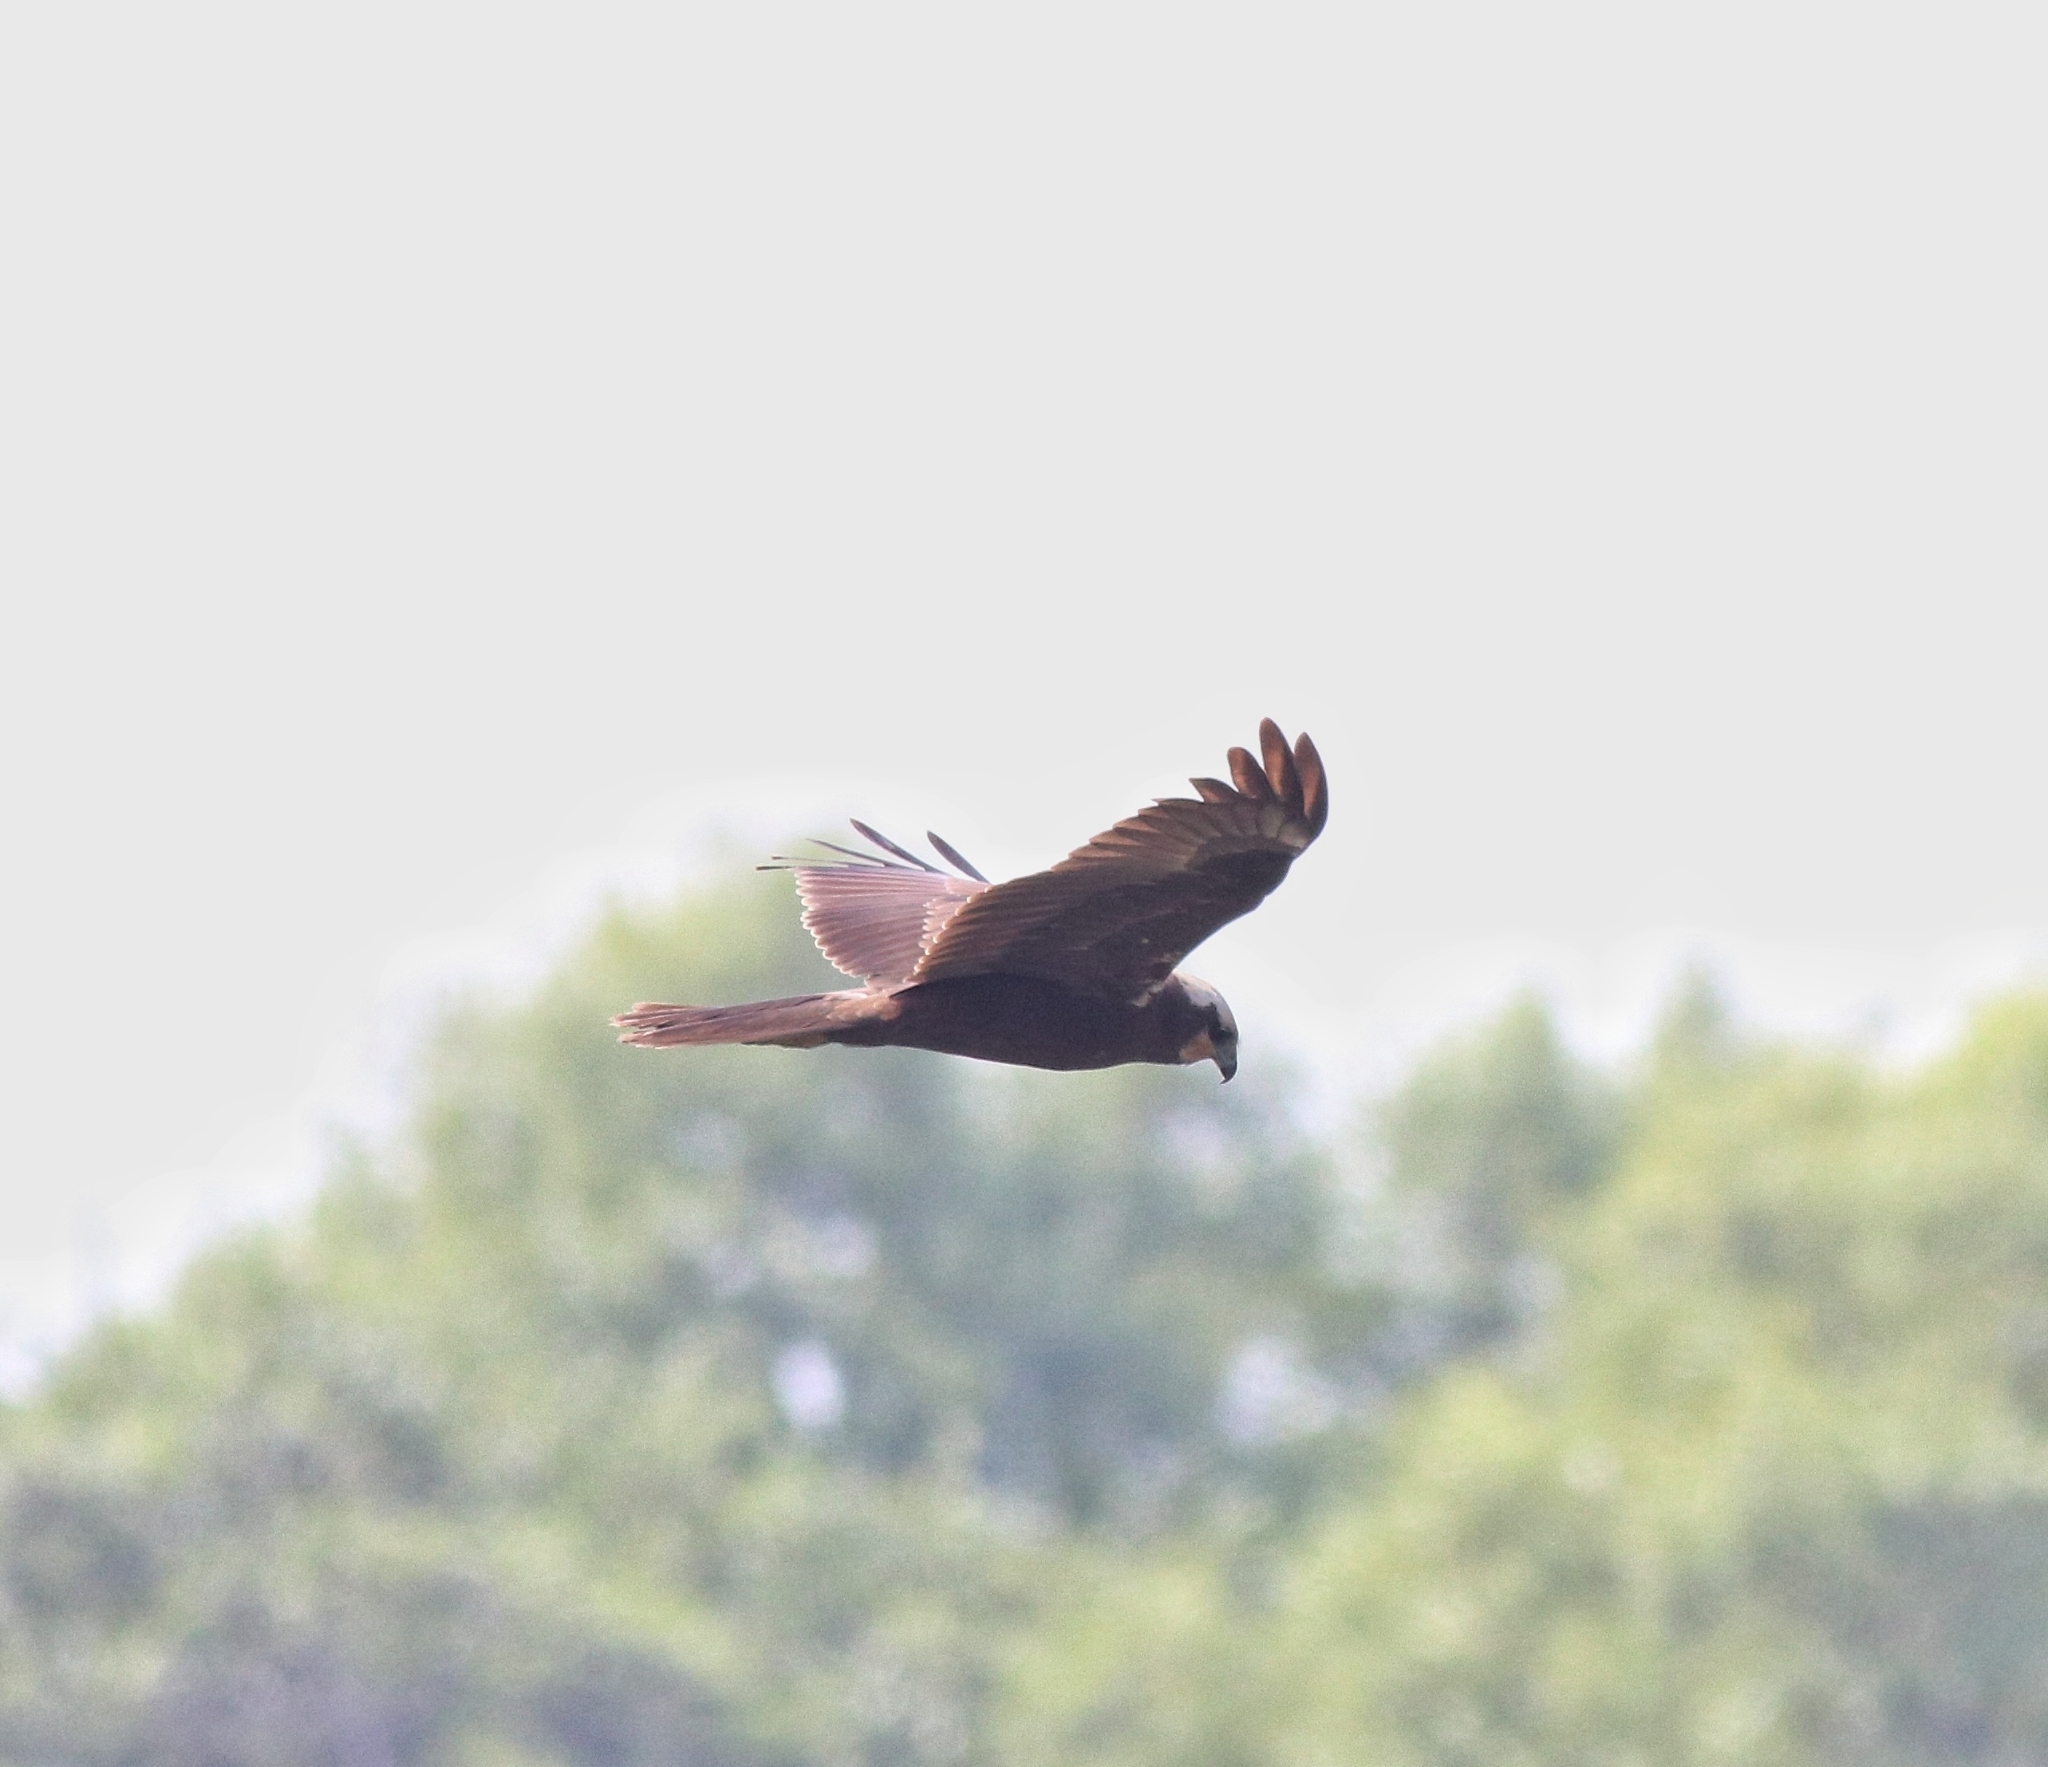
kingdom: Animalia
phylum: Chordata
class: Aves
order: Accipitriformes
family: Accipitridae
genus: Circus
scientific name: Circus aeruginosus
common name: Western marsh harrier
